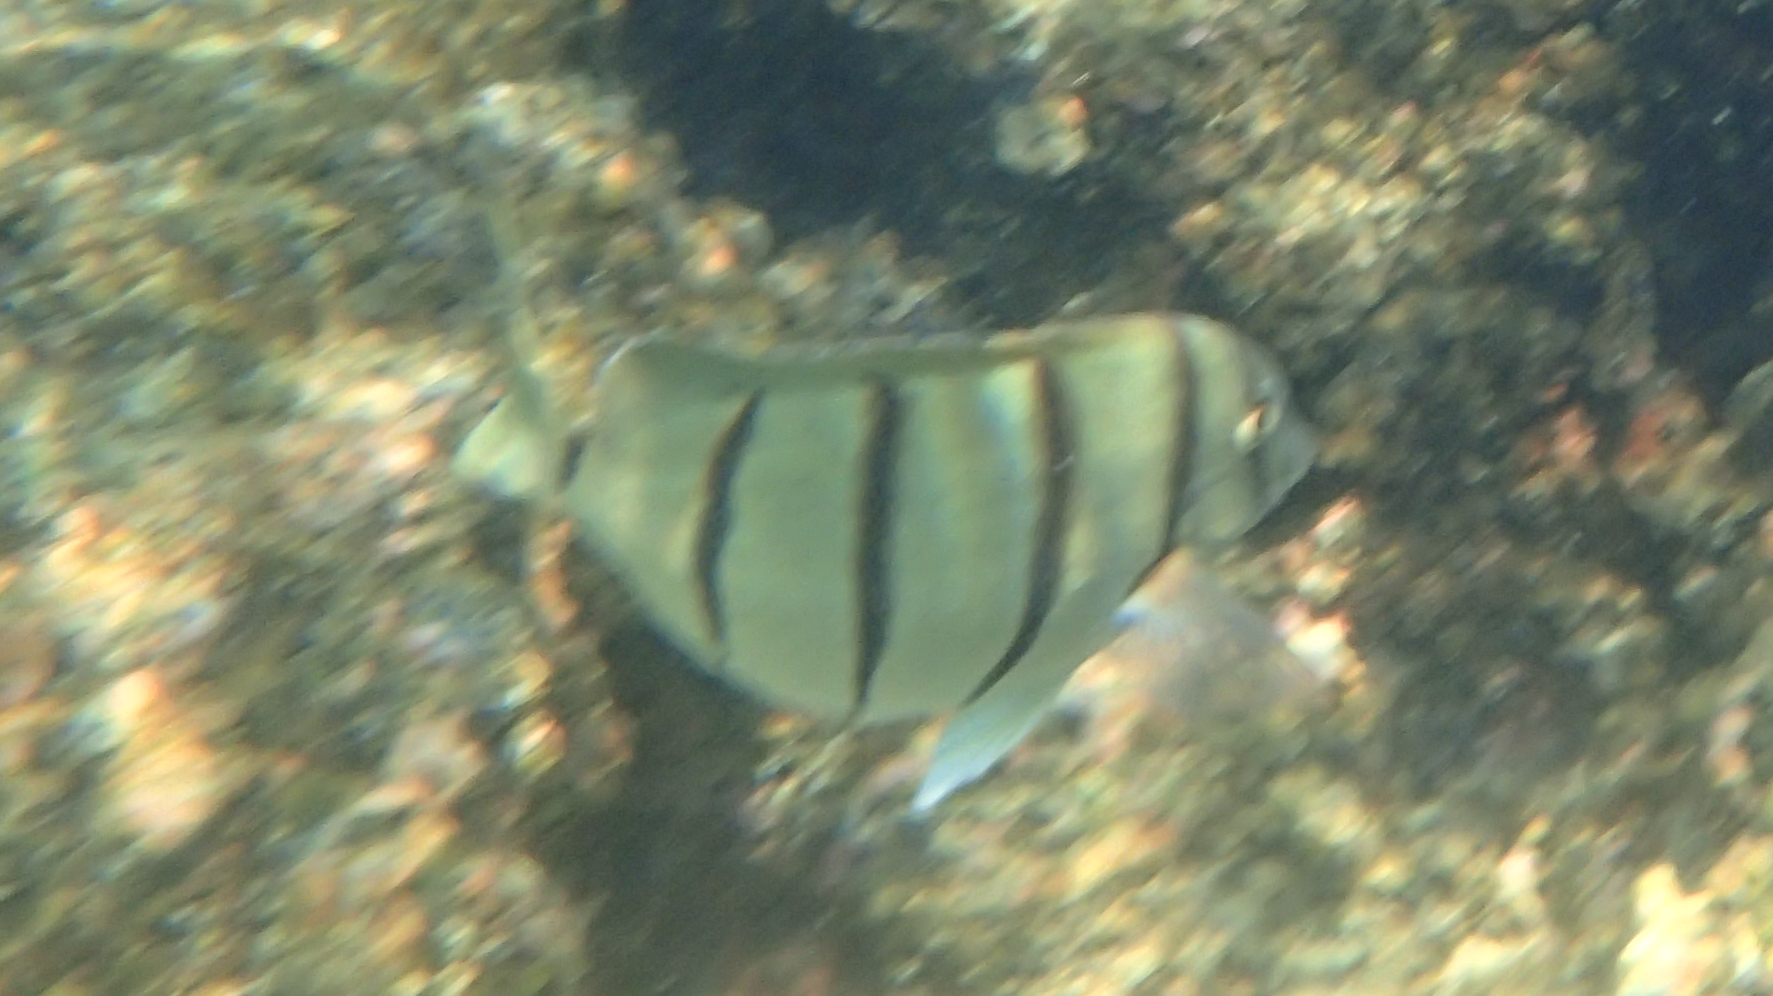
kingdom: Animalia
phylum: Chordata
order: Perciformes
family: Acanthuridae
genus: Acanthurus
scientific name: Acanthurus triostegus
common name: Convict surgeonfish
